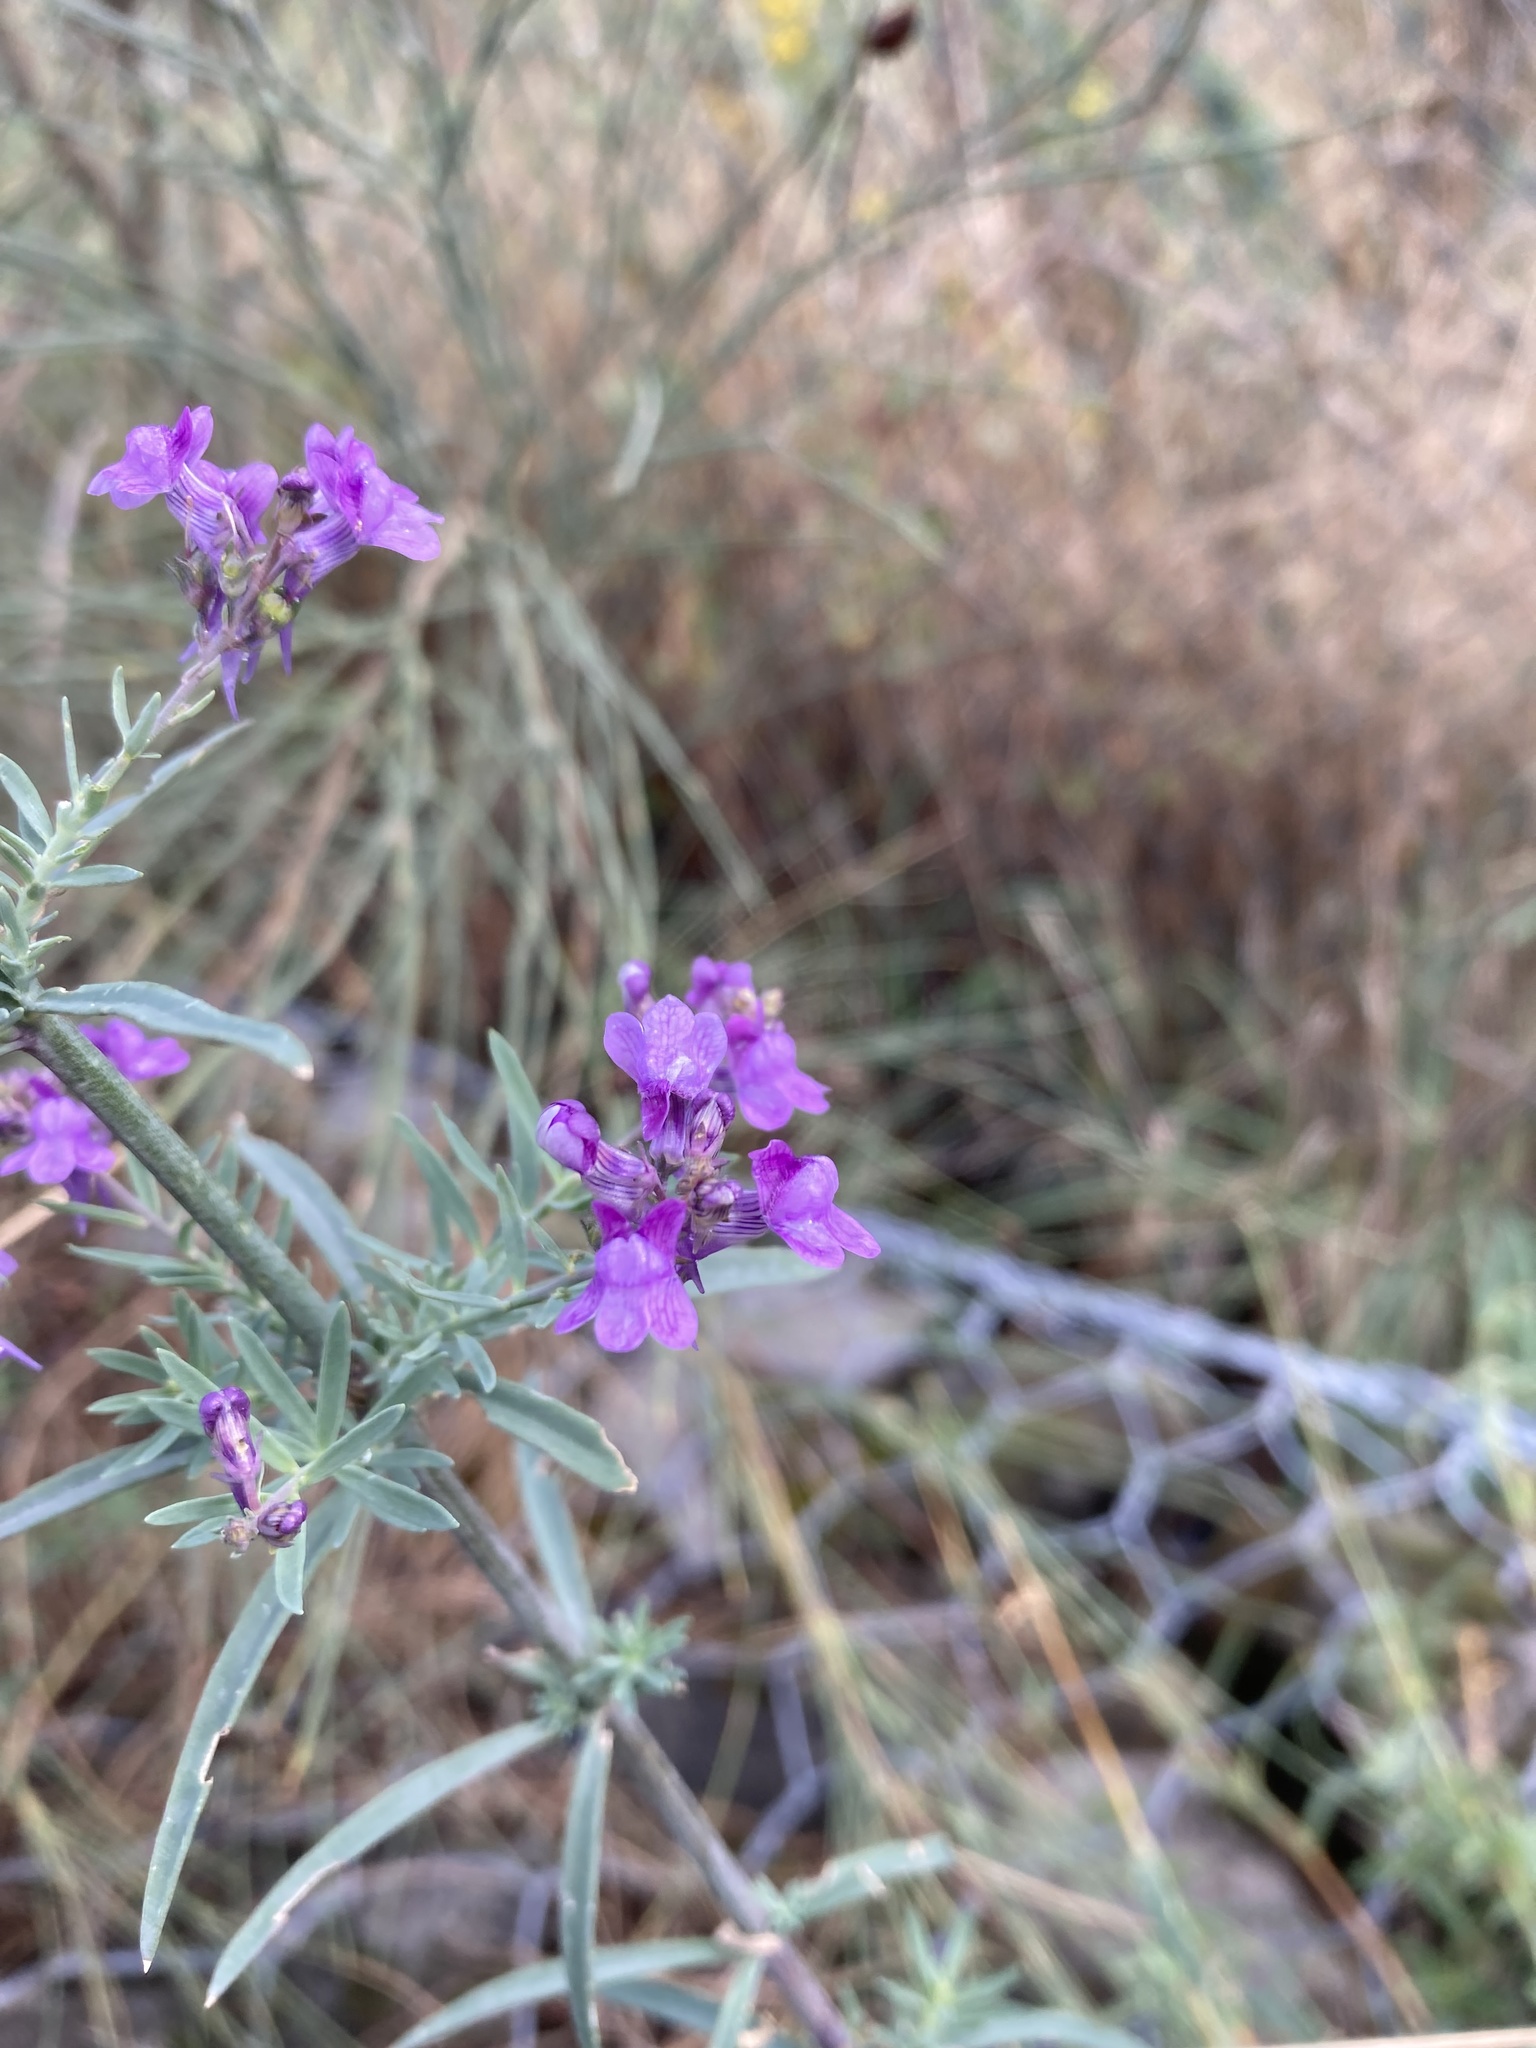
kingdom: Plantae
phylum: Tracheophyta
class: Magnoliopsida
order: Lamiales
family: Plantaginaceae
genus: Linaria
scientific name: Linaria purpurea
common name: Purple toadflax
